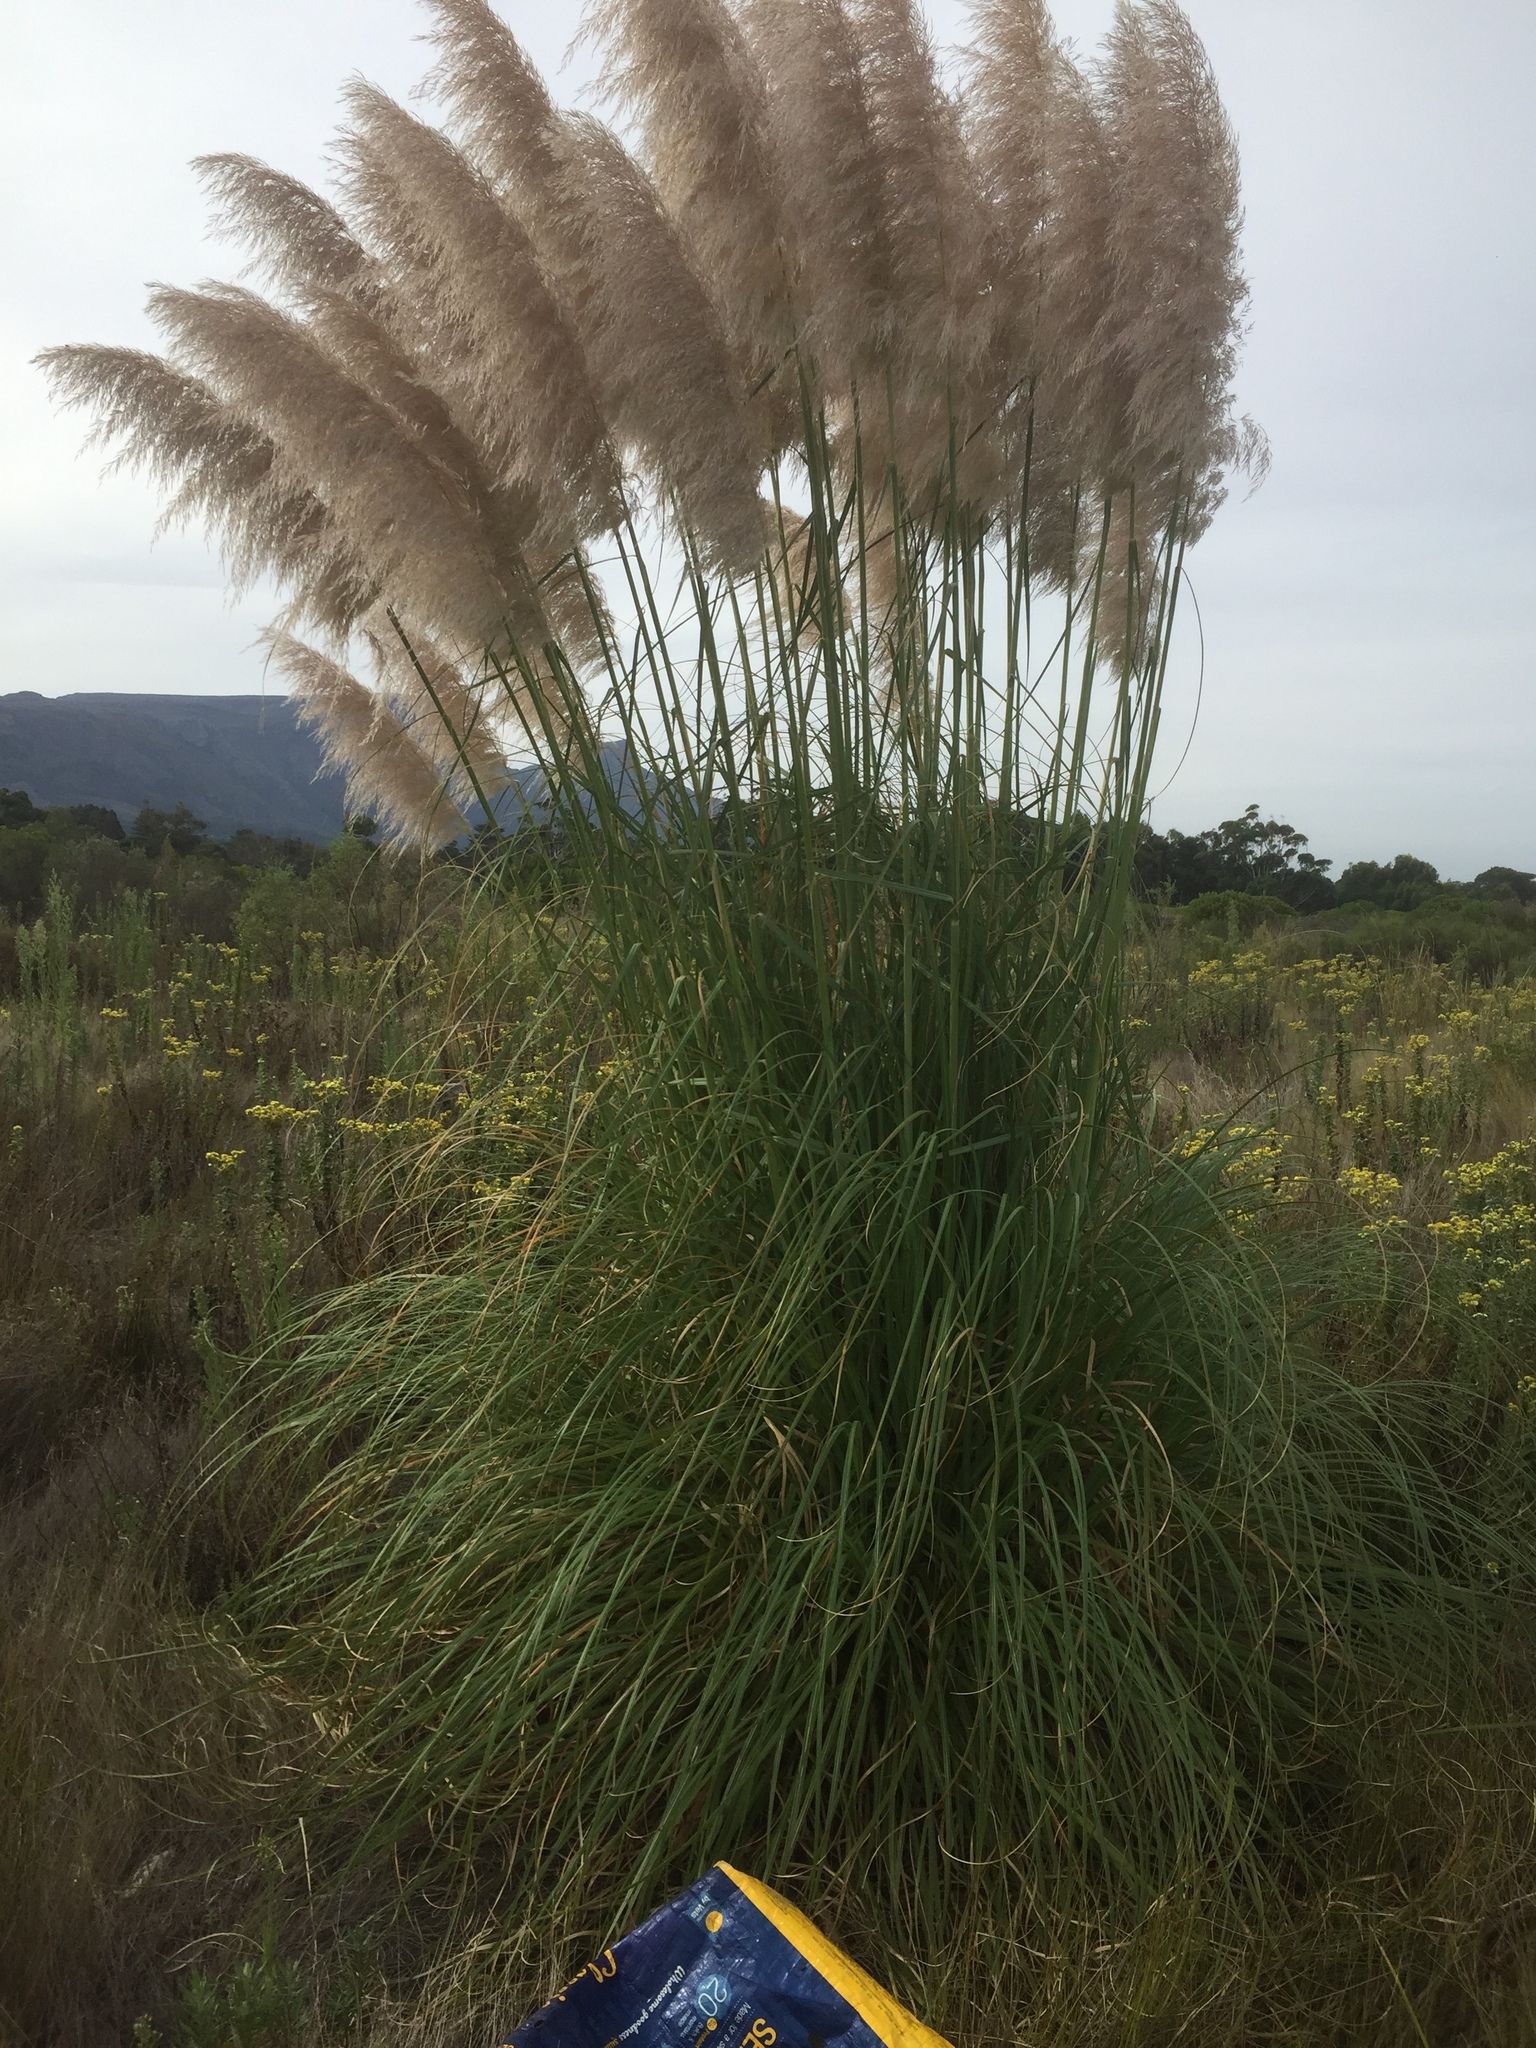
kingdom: Plantae
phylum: Tracheophyta
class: Liliopsida
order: Poales
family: Poaceae
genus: Cortaderia
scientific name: Cortaderia selloana
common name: Uruguayan pampas grass
